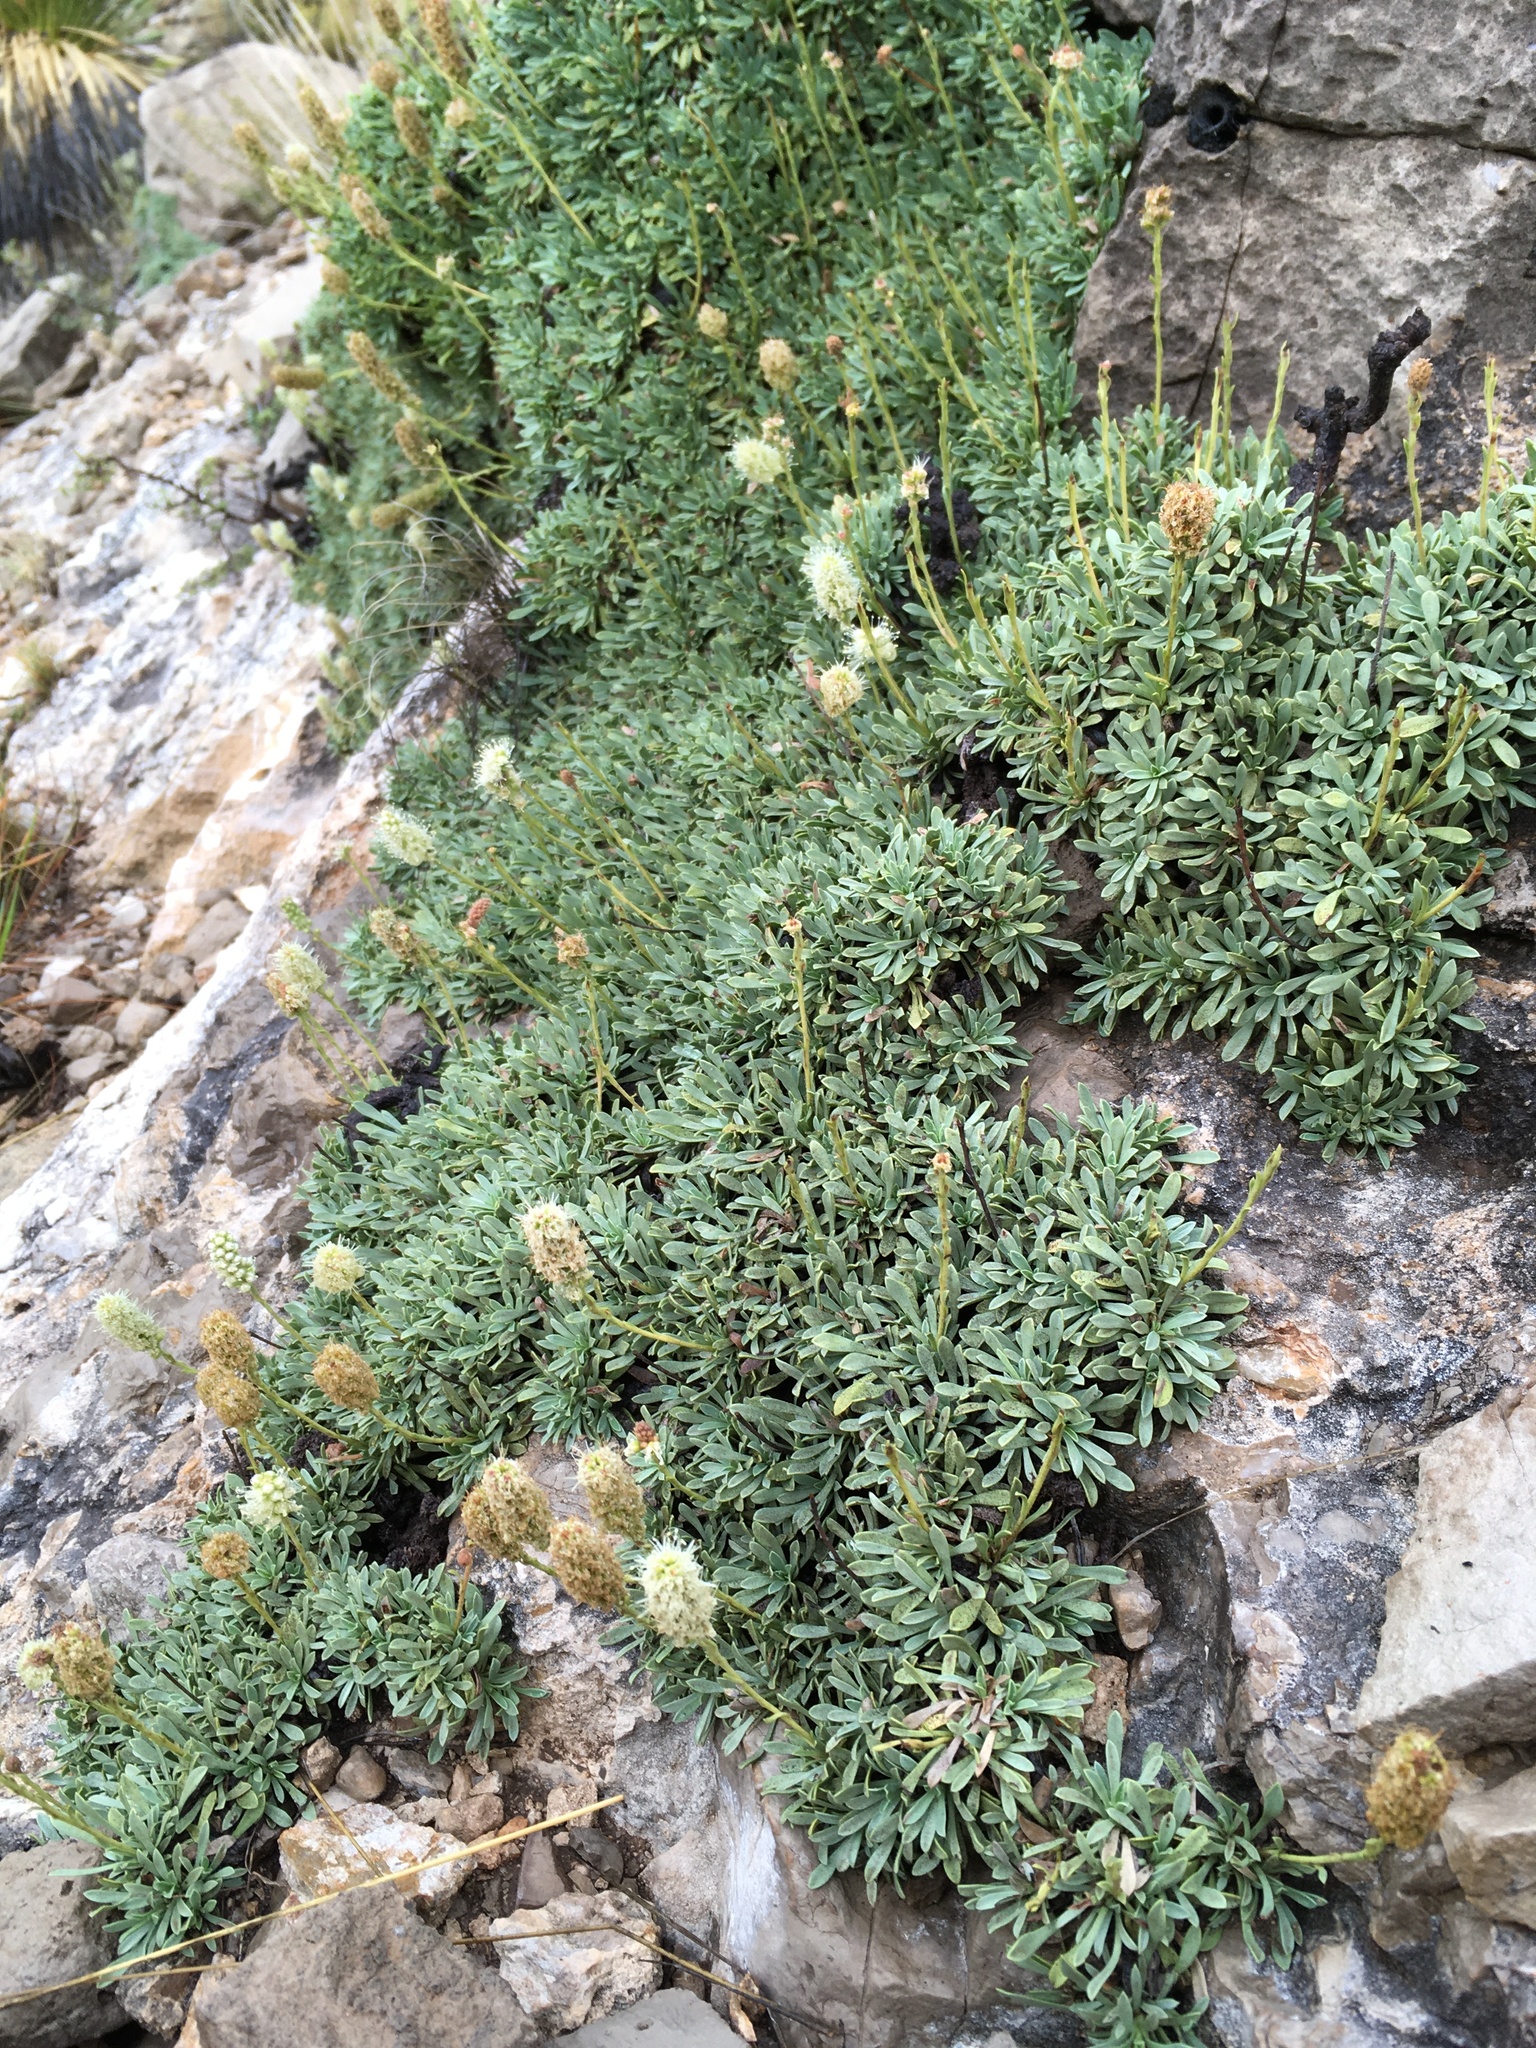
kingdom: Plantae
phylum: Tracheophyta
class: Magnoliopsida
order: Rosales
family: Rosaceae
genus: Petrophytum
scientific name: Petrophytum caespitosum
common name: Mat rockspirea
